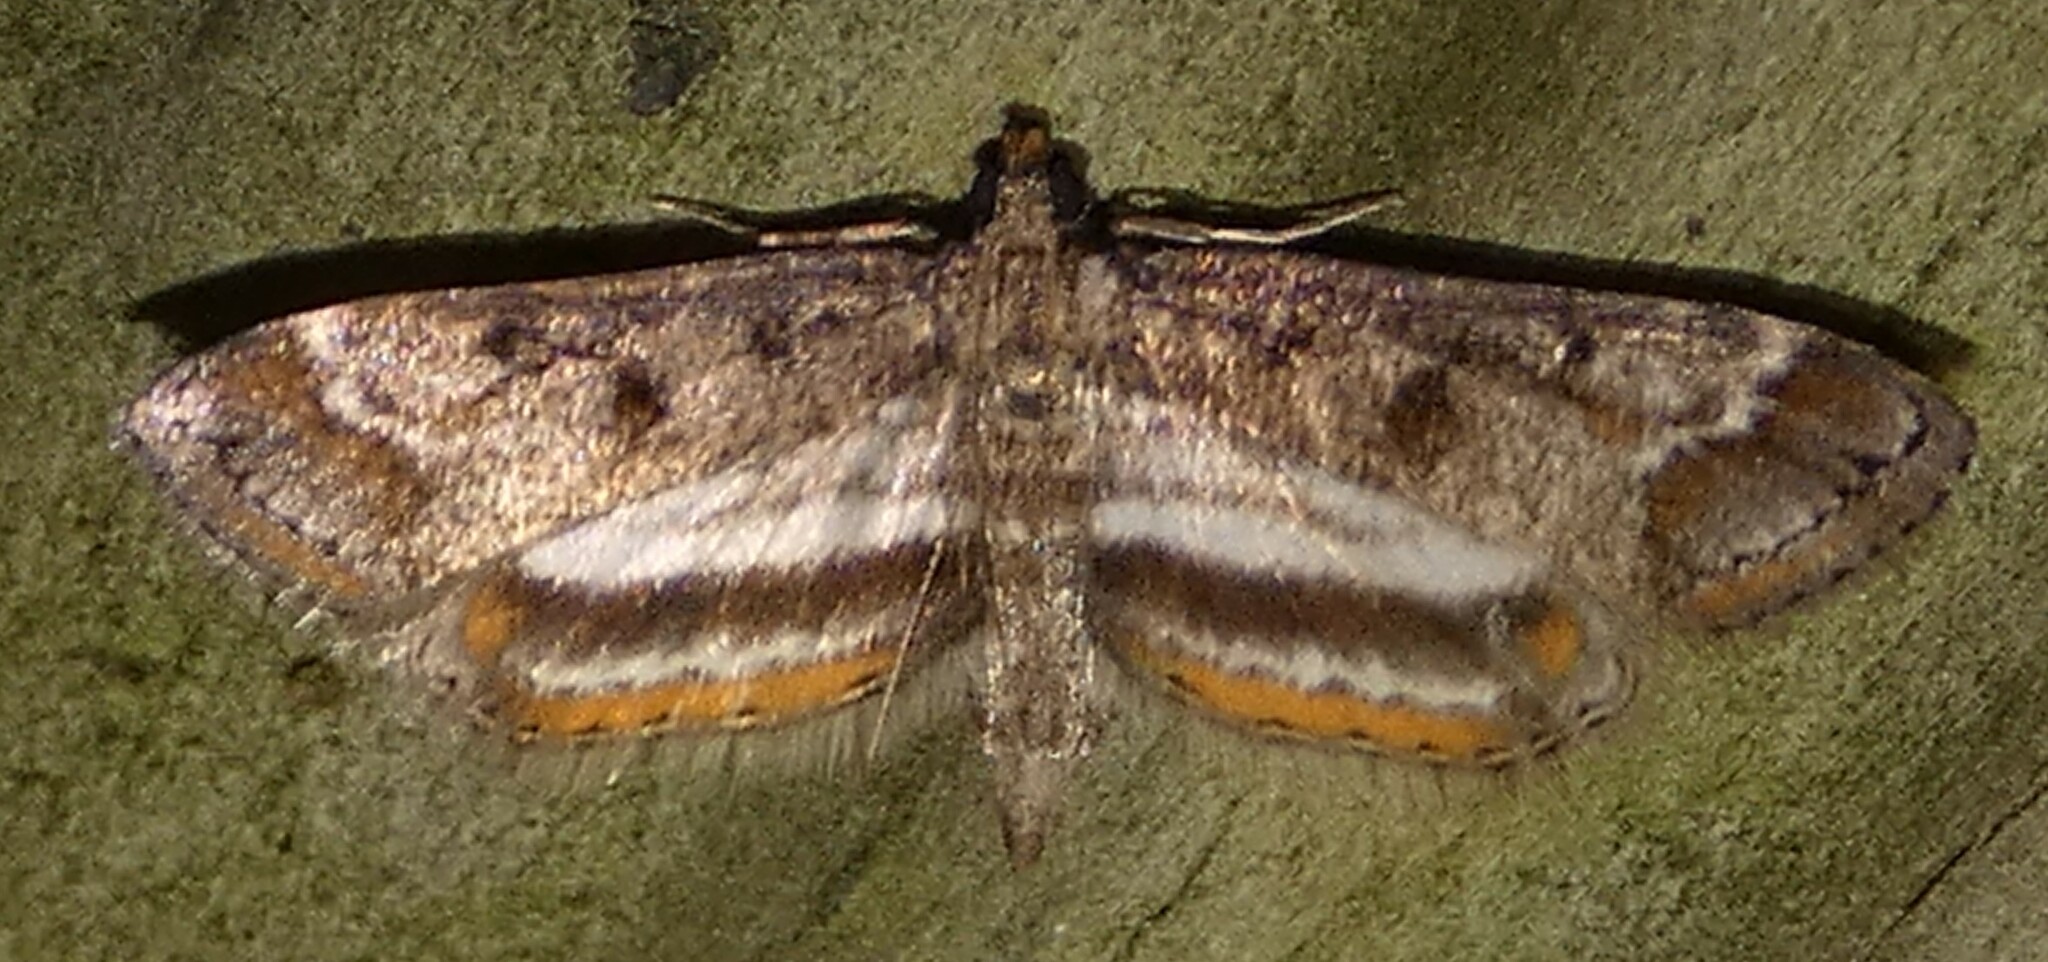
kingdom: Animalia
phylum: Arthropoda
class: Insecta
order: Lepidoptera
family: Crambidae
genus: Parapoynx
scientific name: Parapoynx obscuralis
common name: American china-mark
